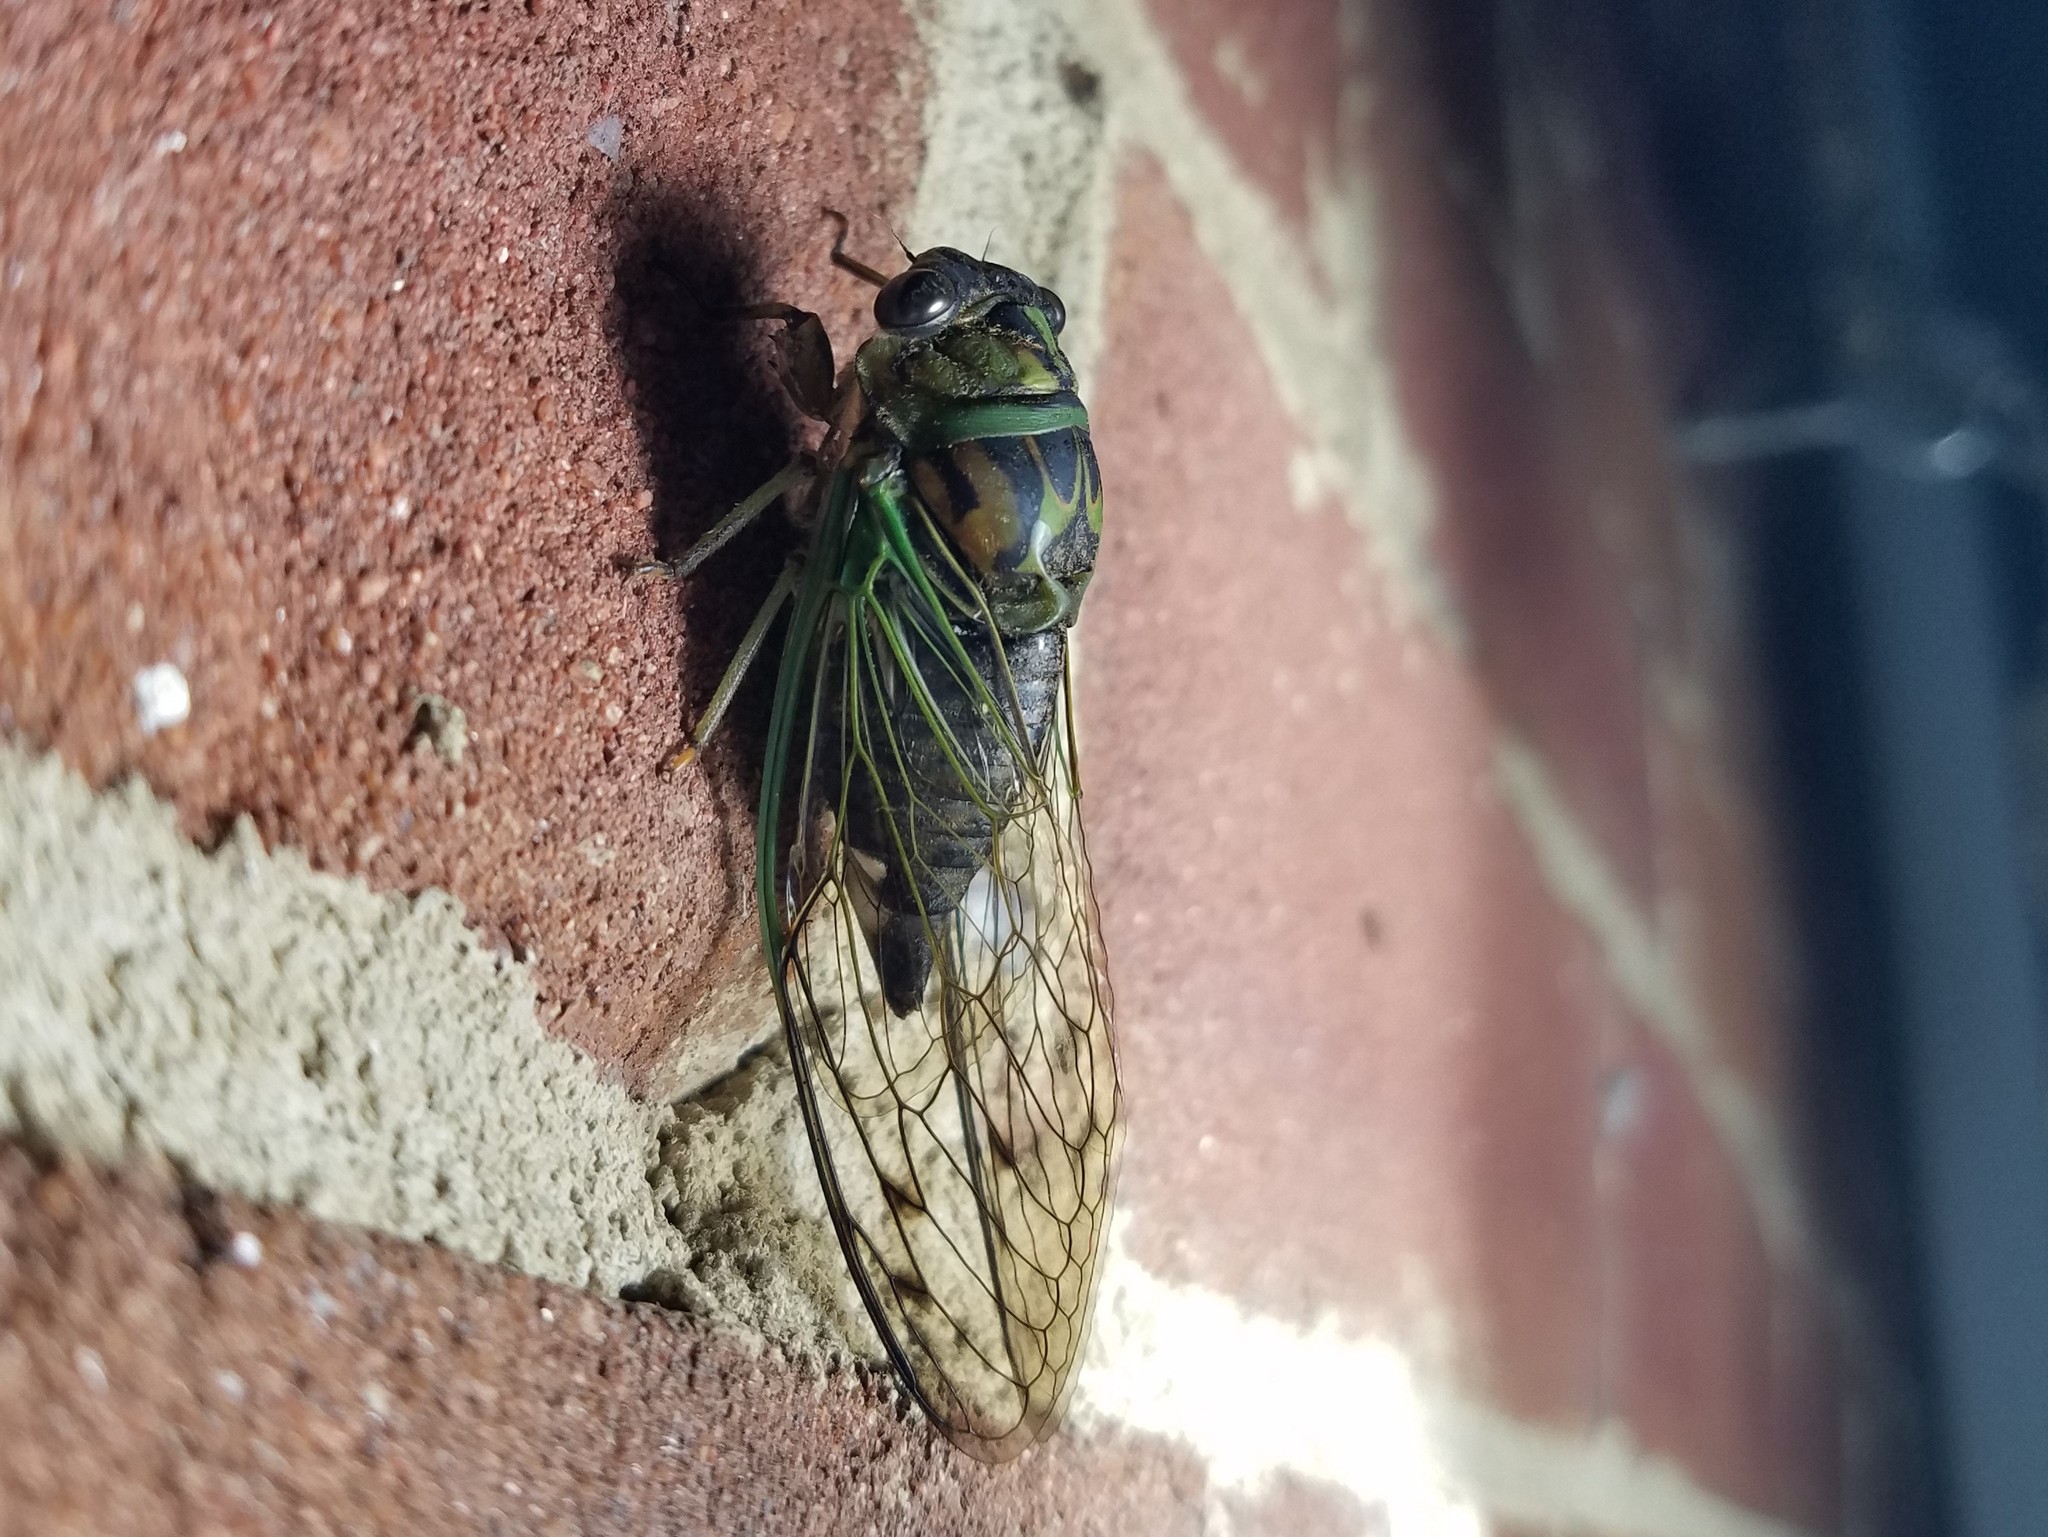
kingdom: Animalia
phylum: Arthropoda
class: Insecta
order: Hemiptera
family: Cicadidae
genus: Neotibicen
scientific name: Neotibicen linnei
